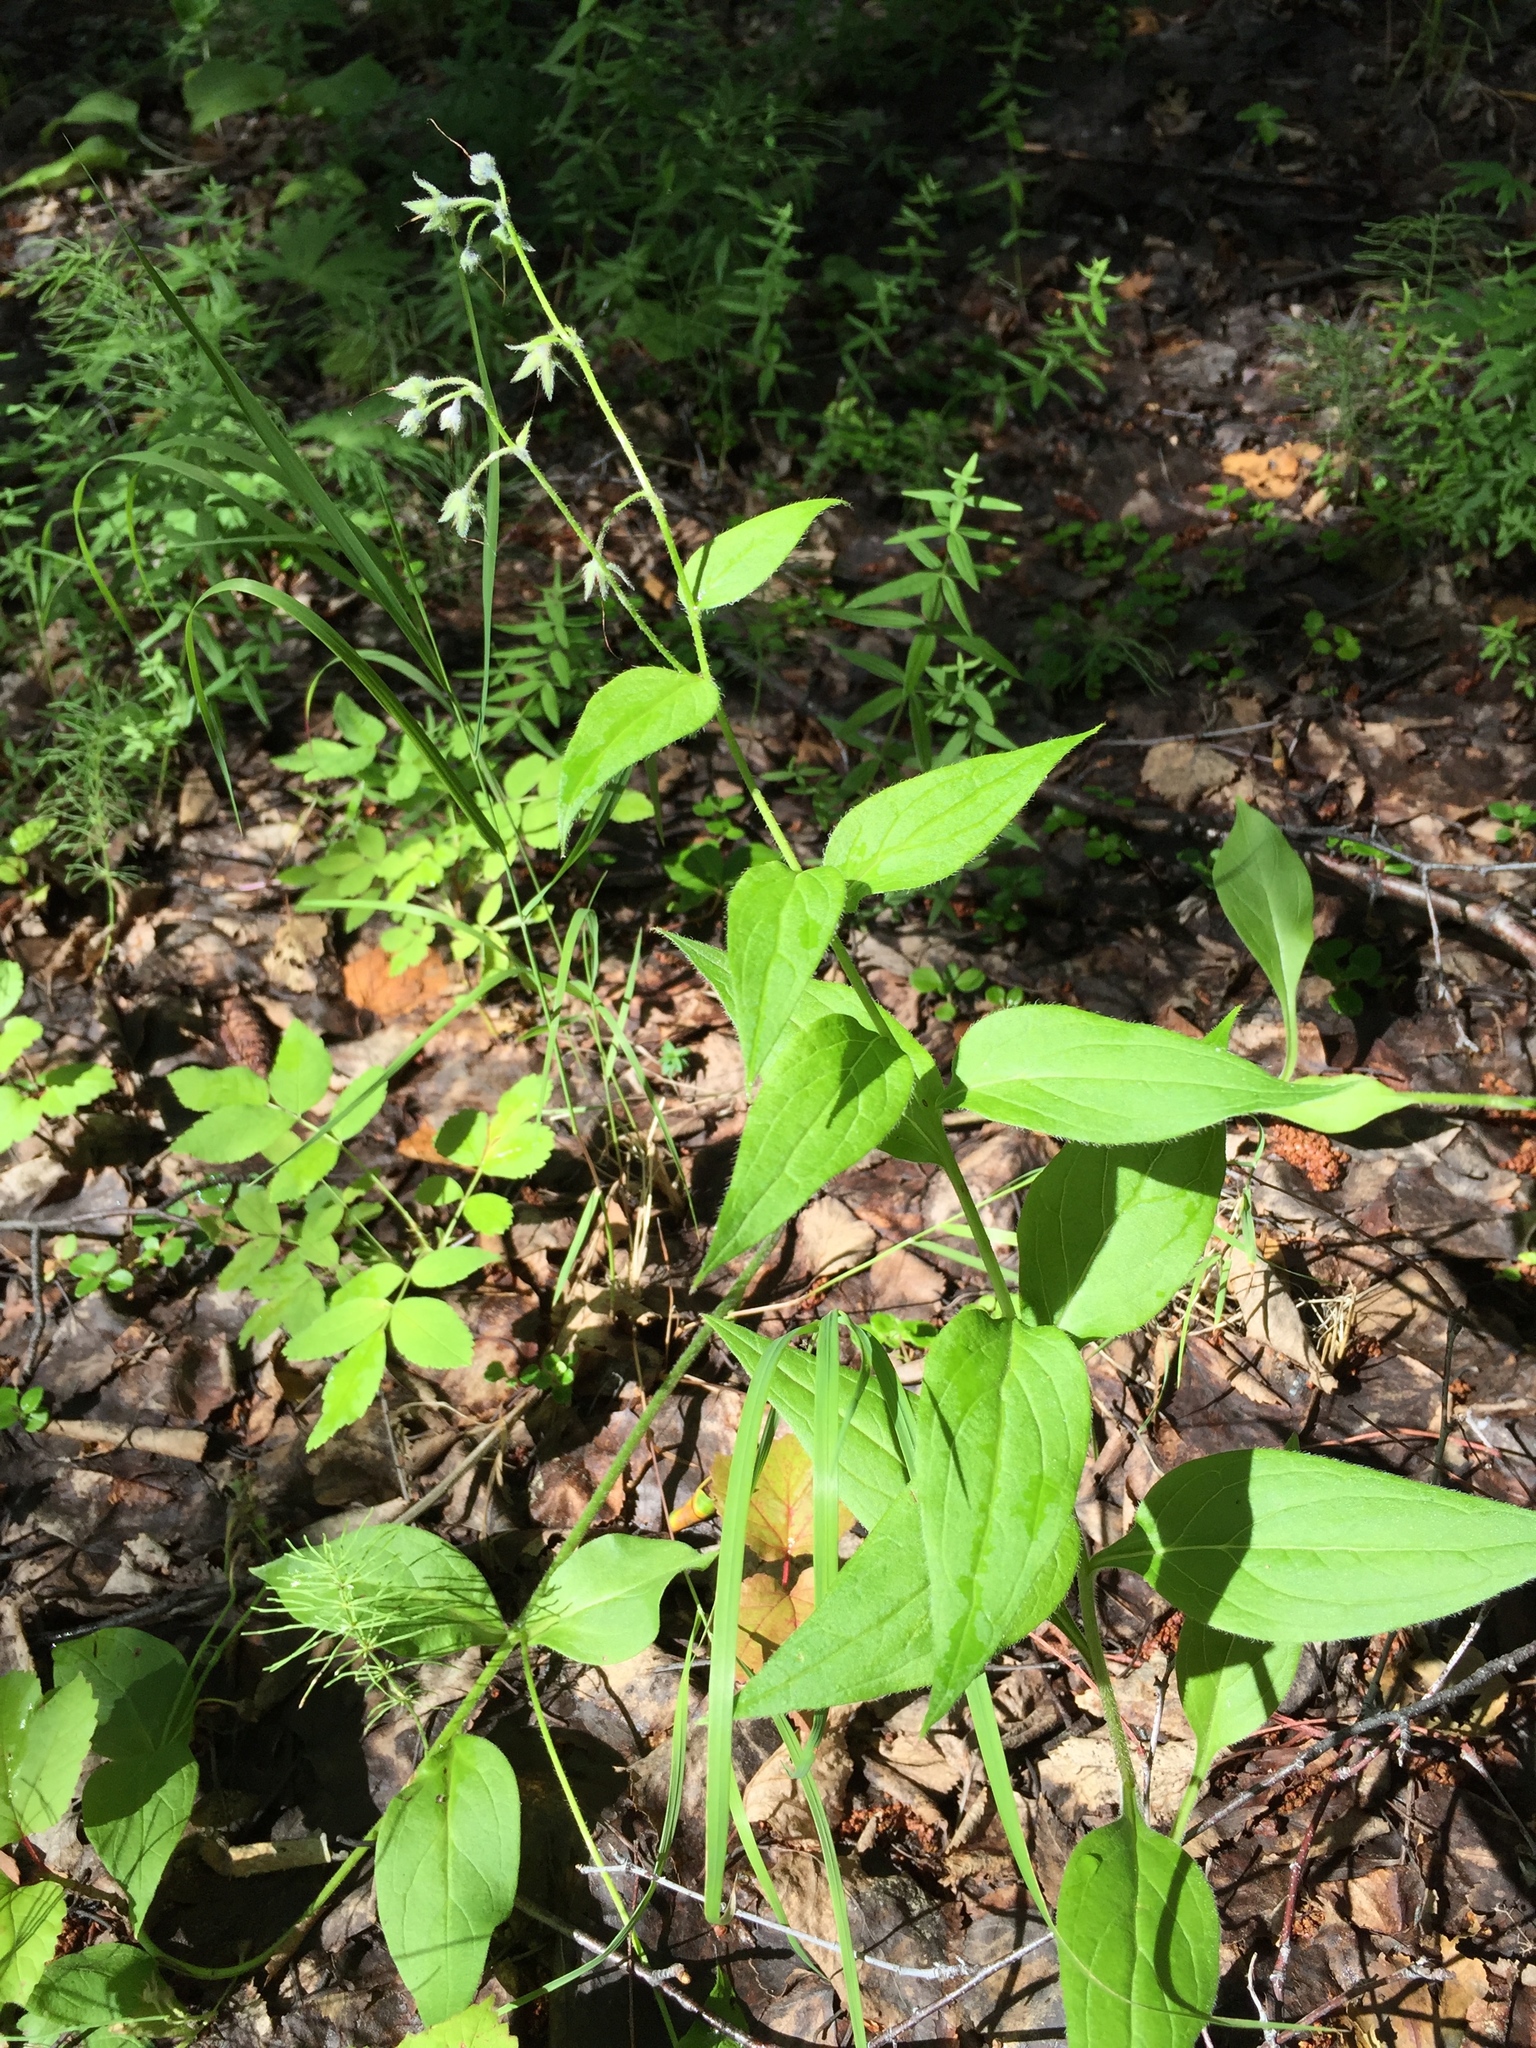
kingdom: Plantae
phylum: Tracheophyta
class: Magnoliopsida
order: Boraginales
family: Boraginaceae
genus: Mertensia
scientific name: Mertensia paniculata
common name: Panicled bluebells
